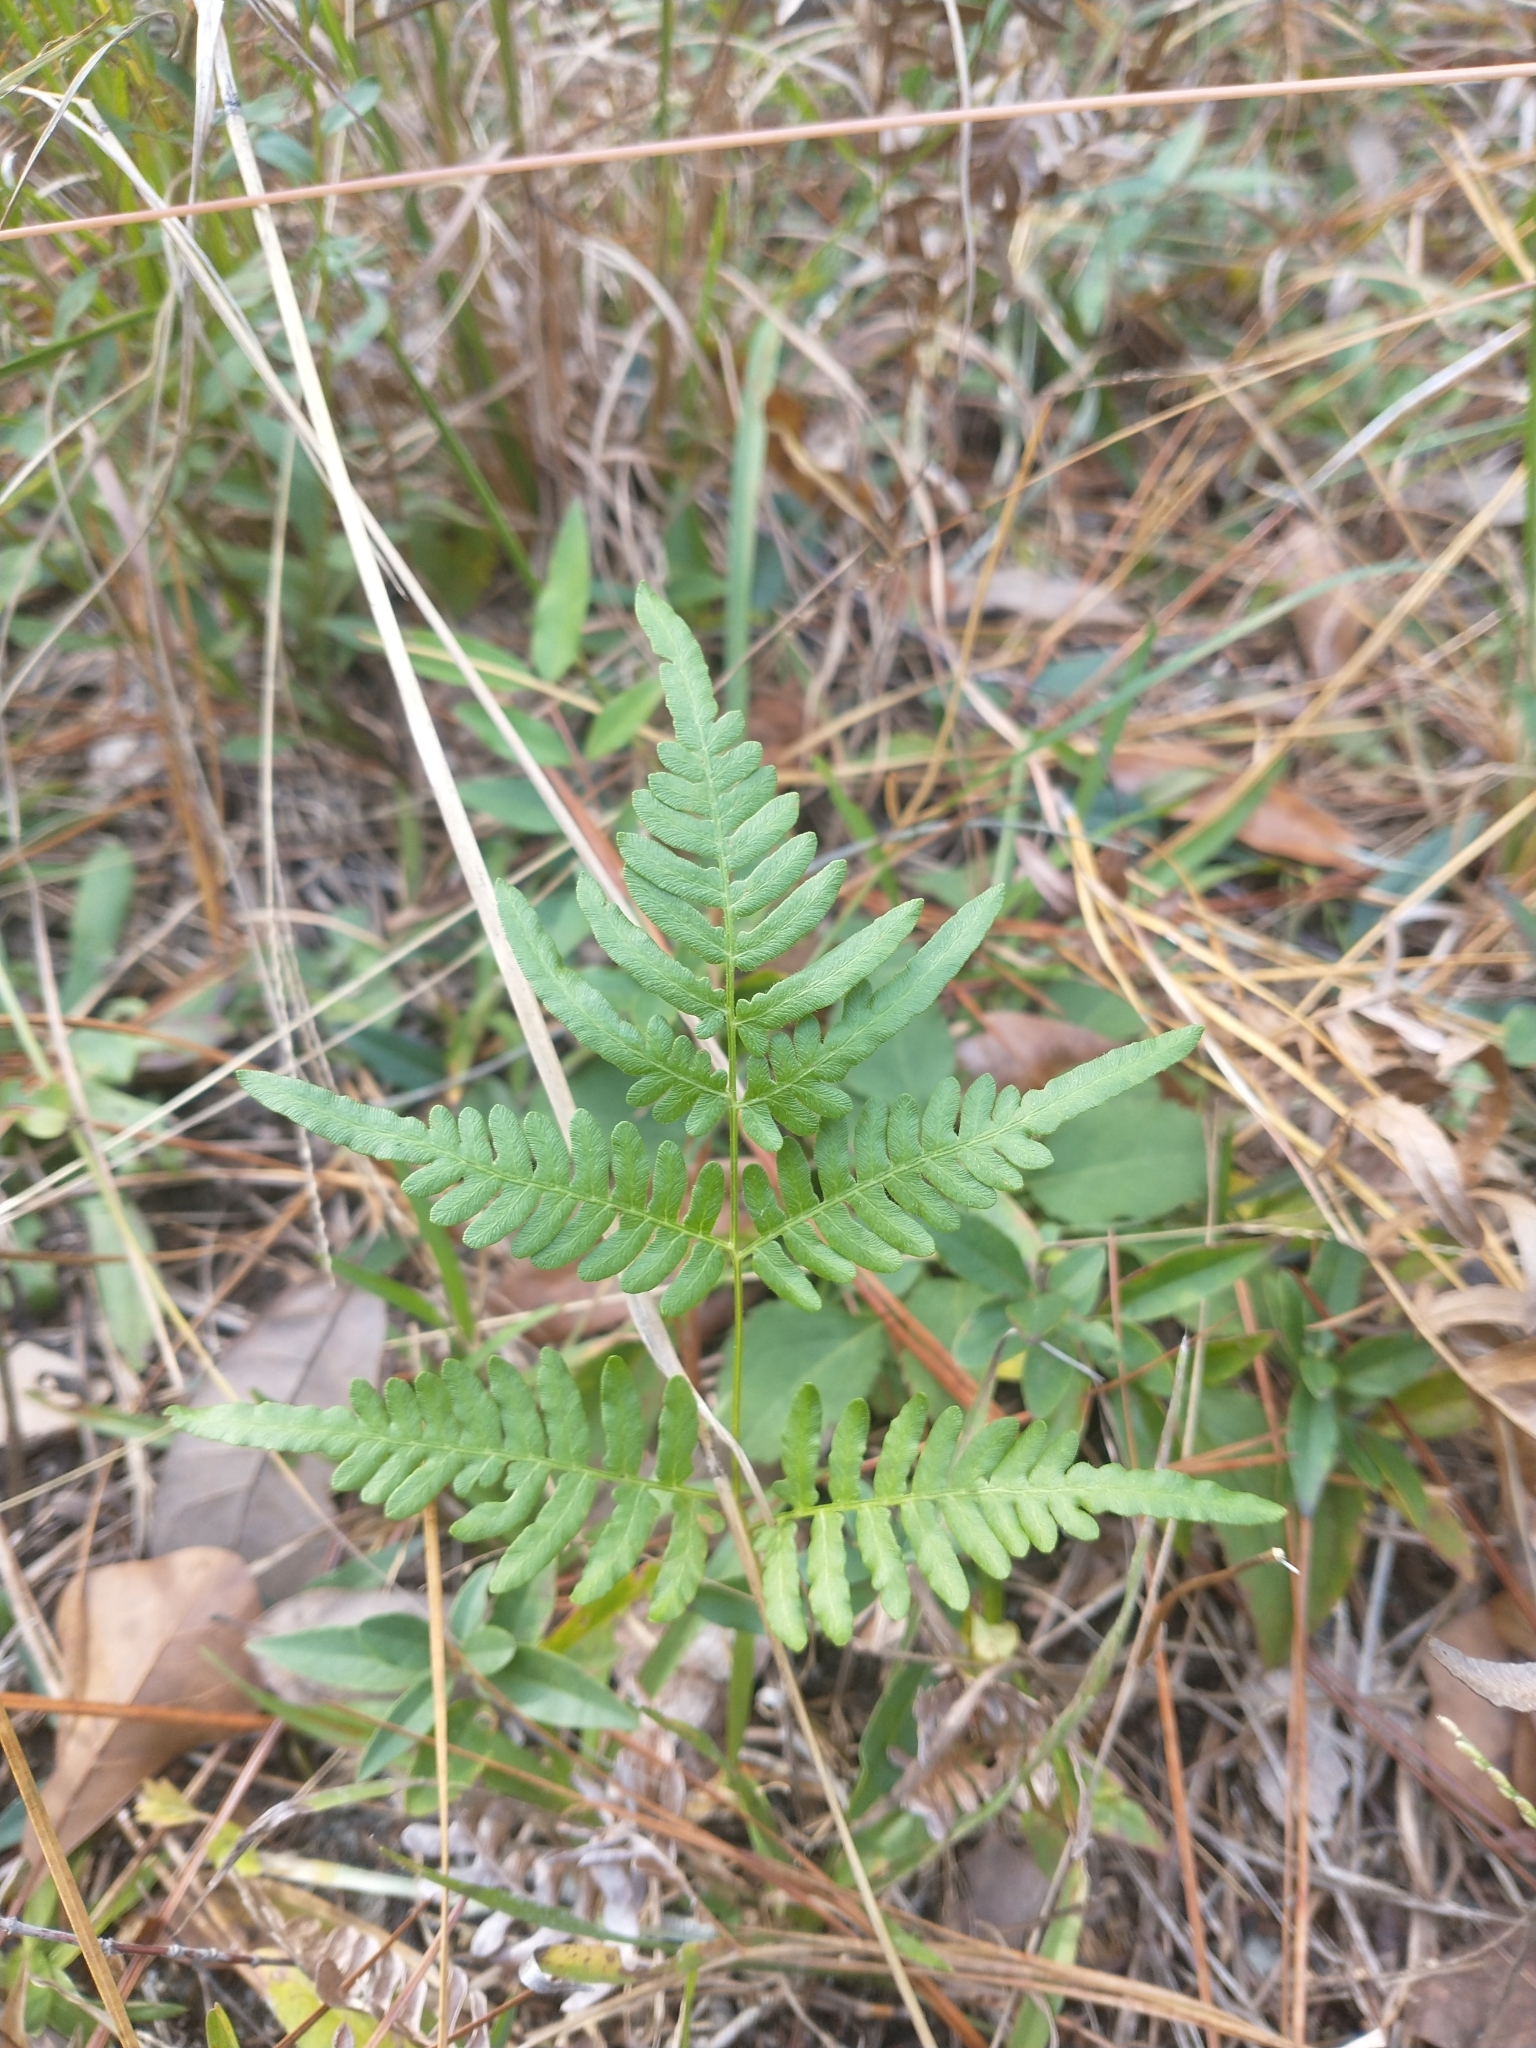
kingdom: Plantae
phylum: Tracheophyta
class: Polypodiopsida
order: Polypodiales
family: Dennstaedtiaceae
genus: Pteridium
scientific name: Pteridium aquilinum
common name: Bracken
